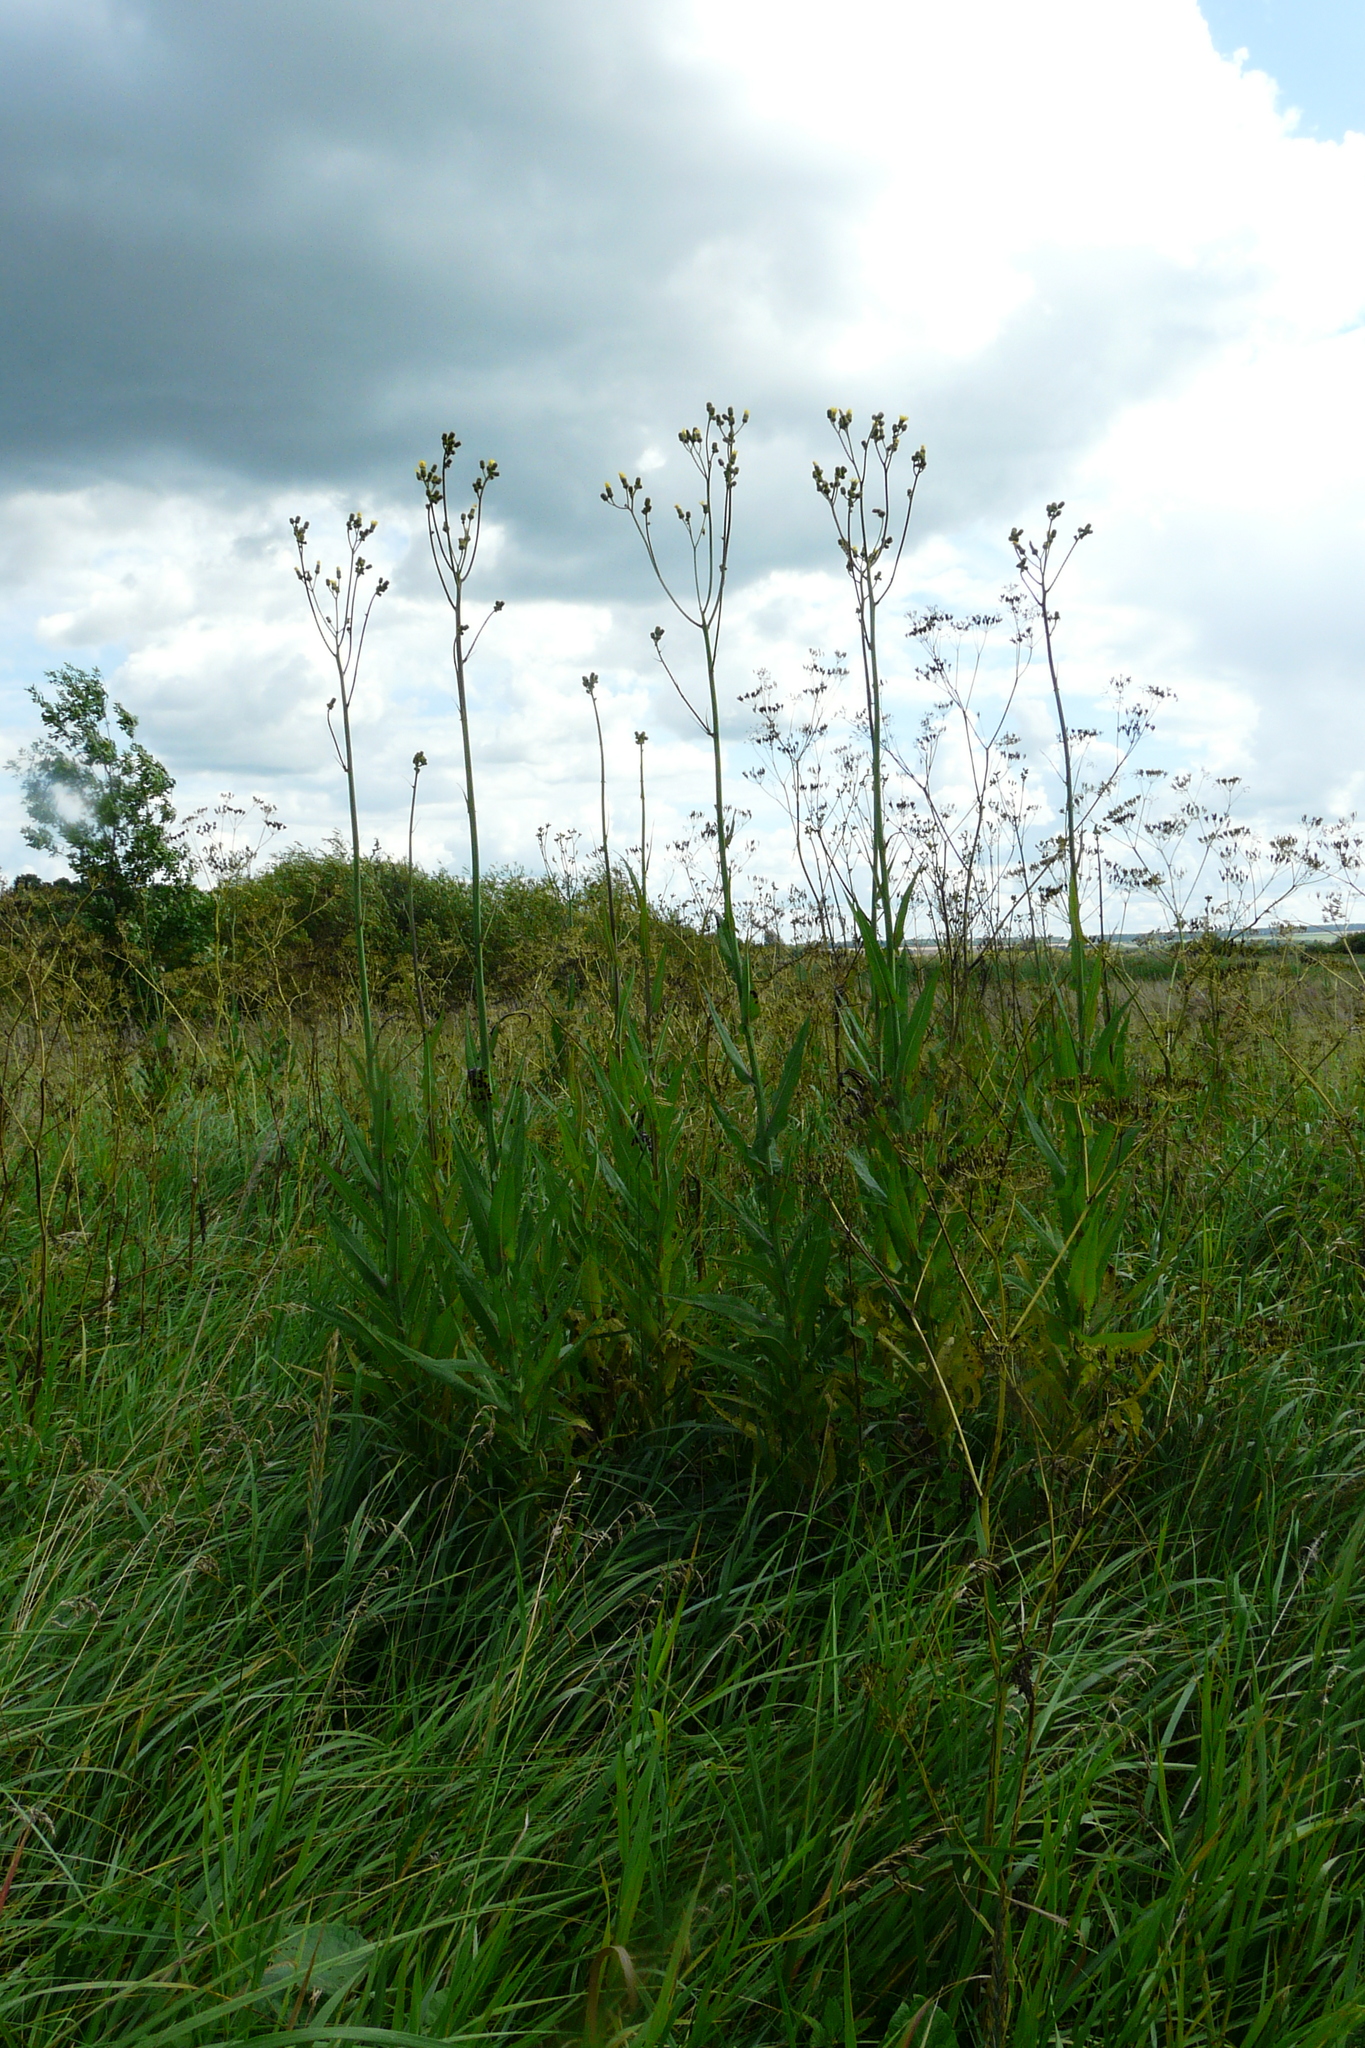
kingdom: Plantae
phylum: Tracheophyta
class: Magnoliopsida
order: Asterales
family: Asteraceae
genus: Sonchus
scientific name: Sonchus palustris
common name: Marsh sow-thistle
